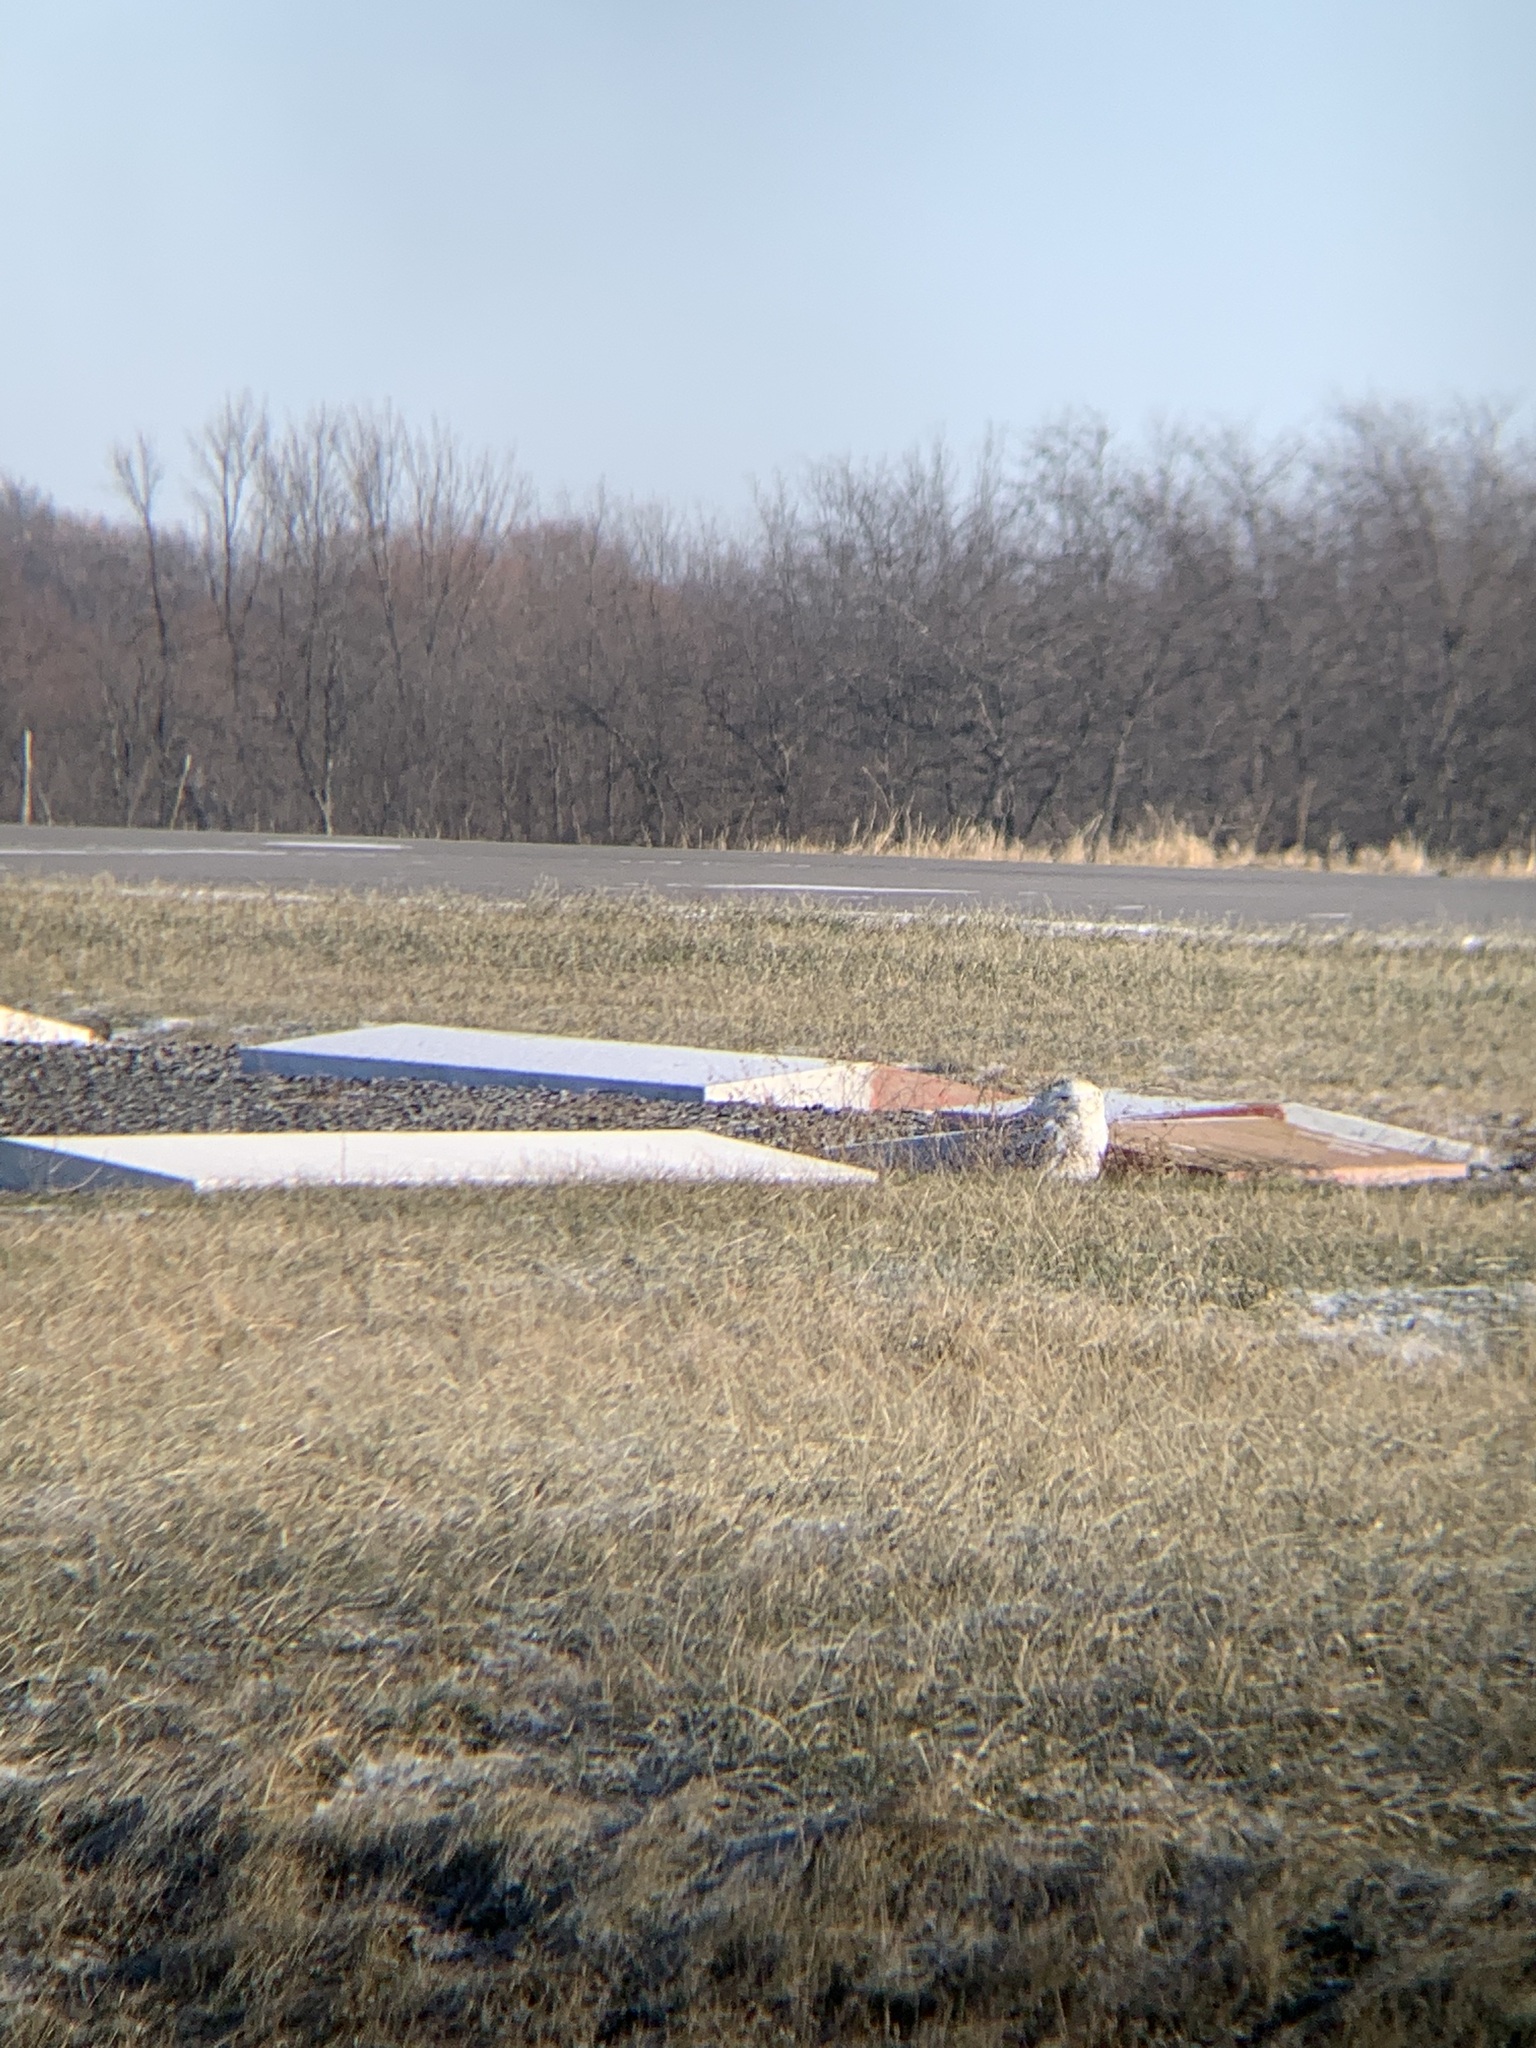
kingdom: Animalia
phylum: Chordata
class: Aves
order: Strigiformes
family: Strigidae
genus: Bubo
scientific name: Bubo scandiacus
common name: Snowy owl
